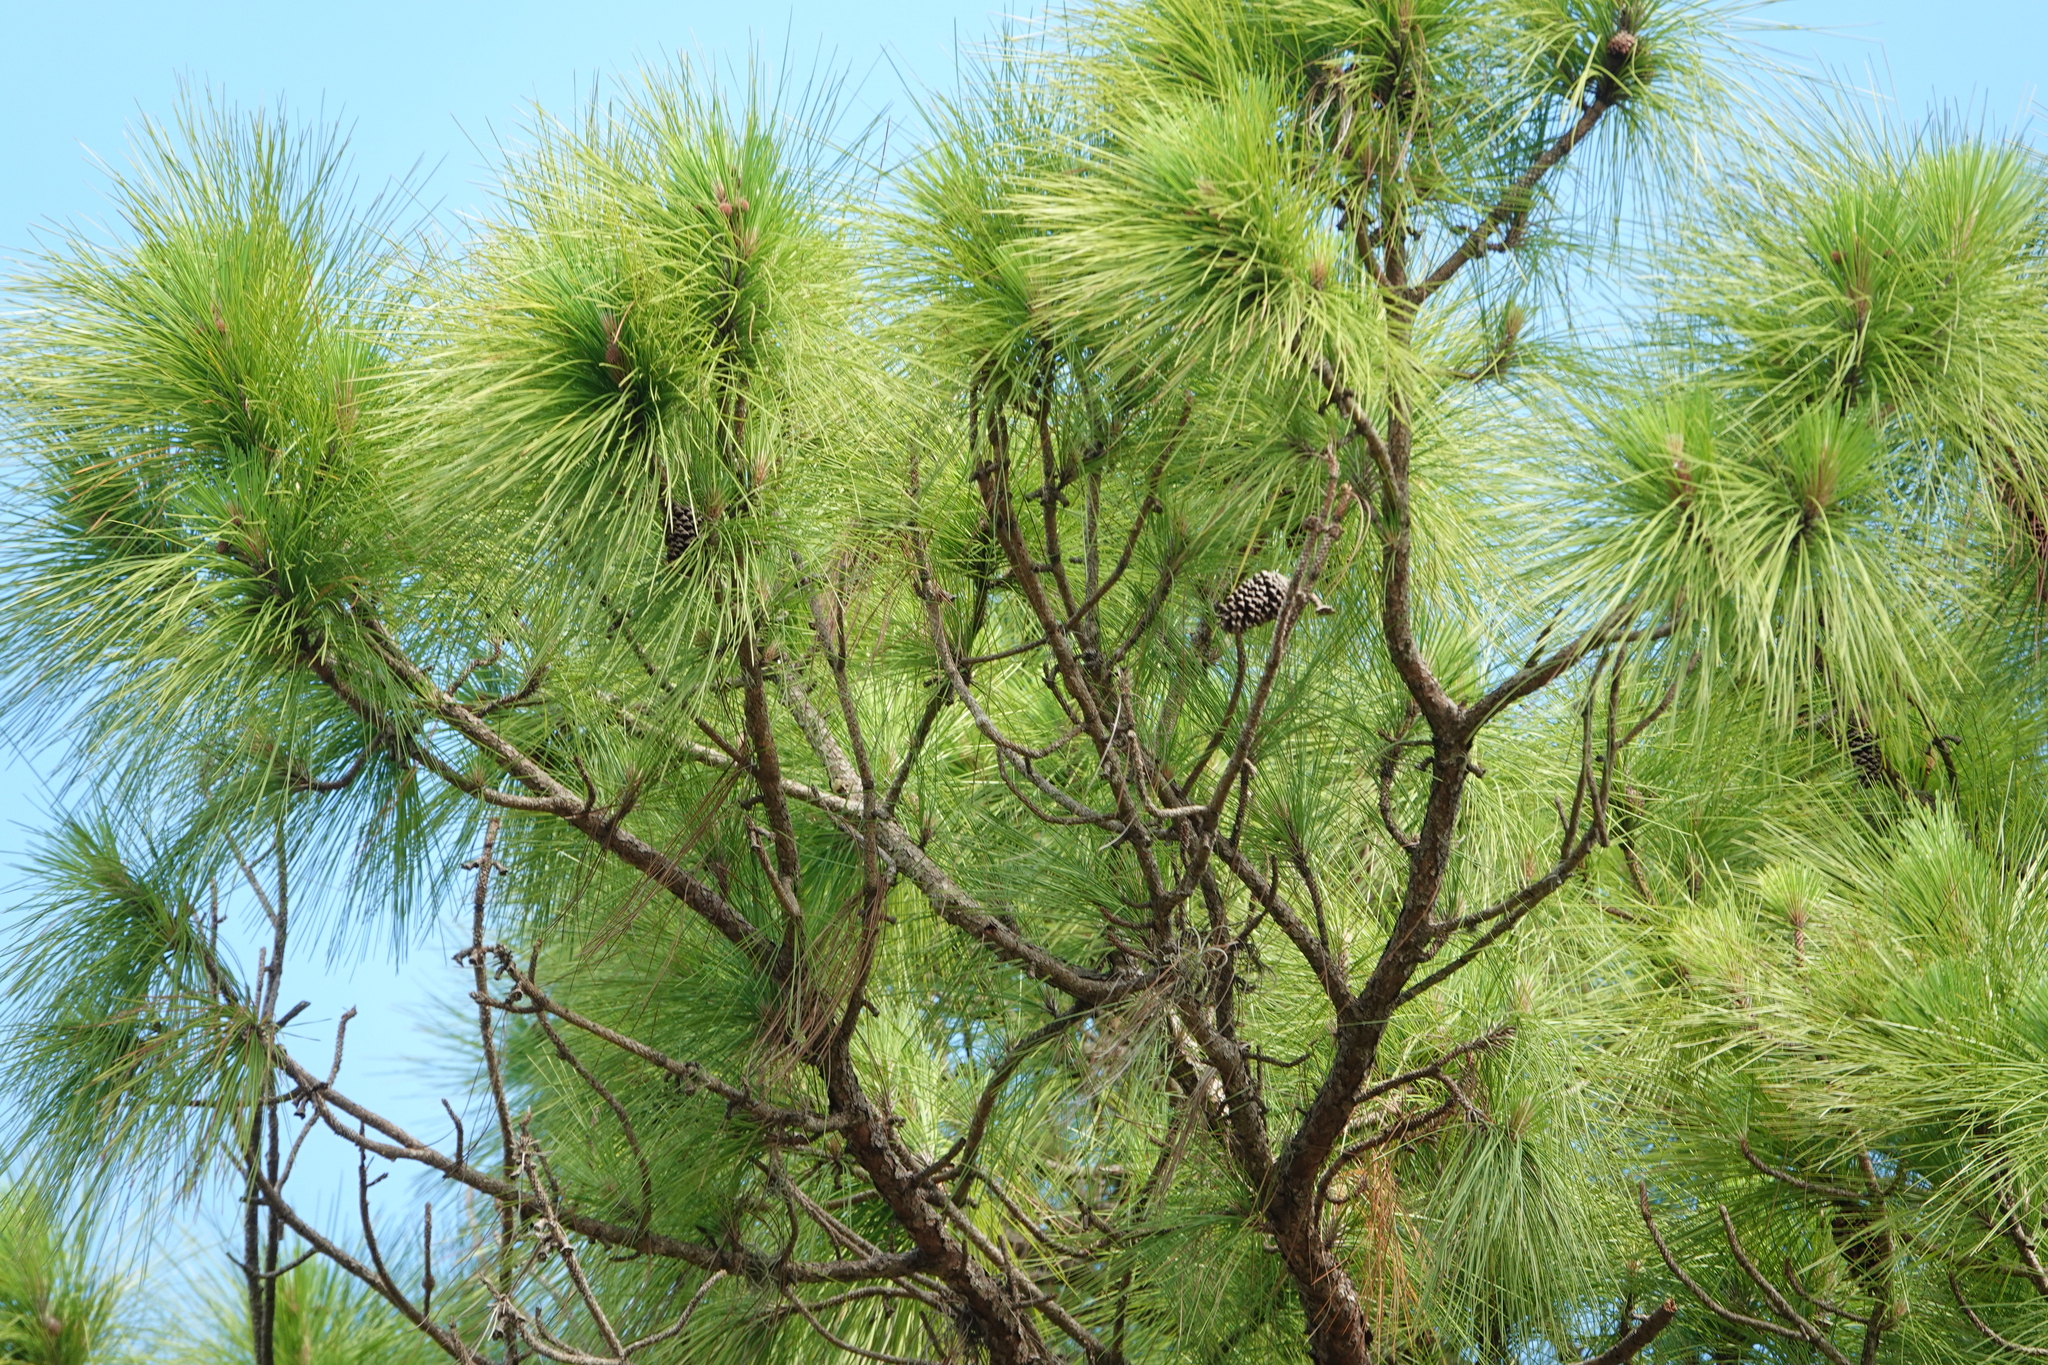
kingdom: Plantae
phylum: Tracheophyta
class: Pinopsida
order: Pinales
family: Pinaceae
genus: Pinus
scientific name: Pinus elliottii
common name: Slash pine
